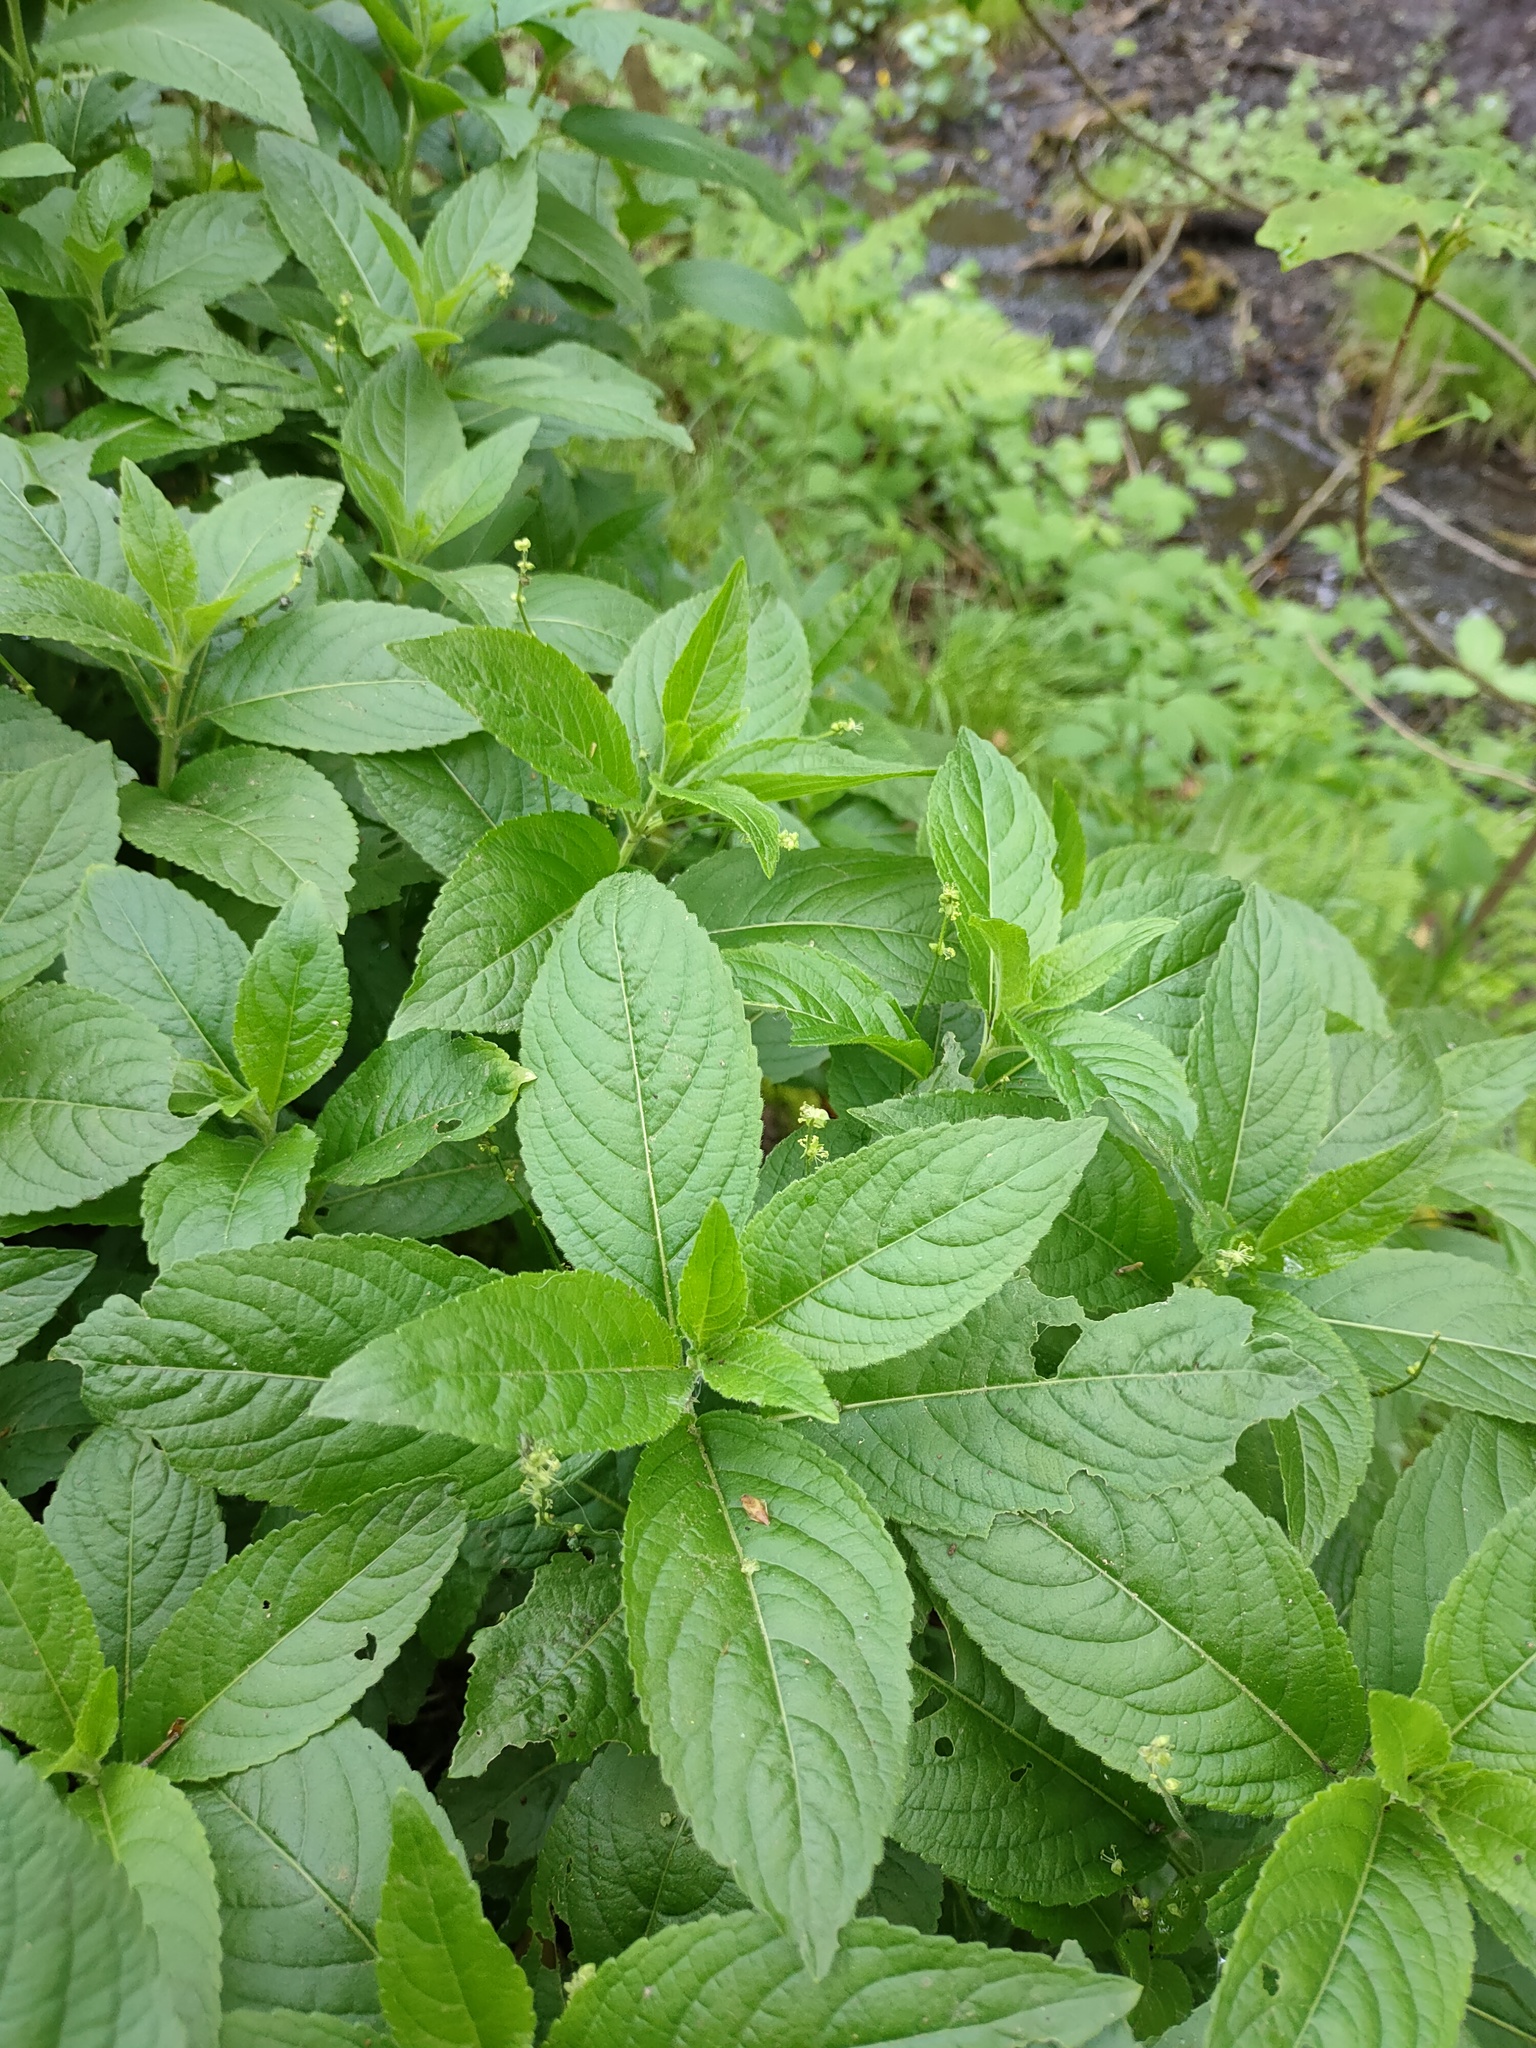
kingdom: Plantae
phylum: Tracheophyta
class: Magnoliopsida
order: Malpighiales
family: Euphorbiaceae
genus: Mercurialis
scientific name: Mercurialis perennis
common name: Dog mercury
